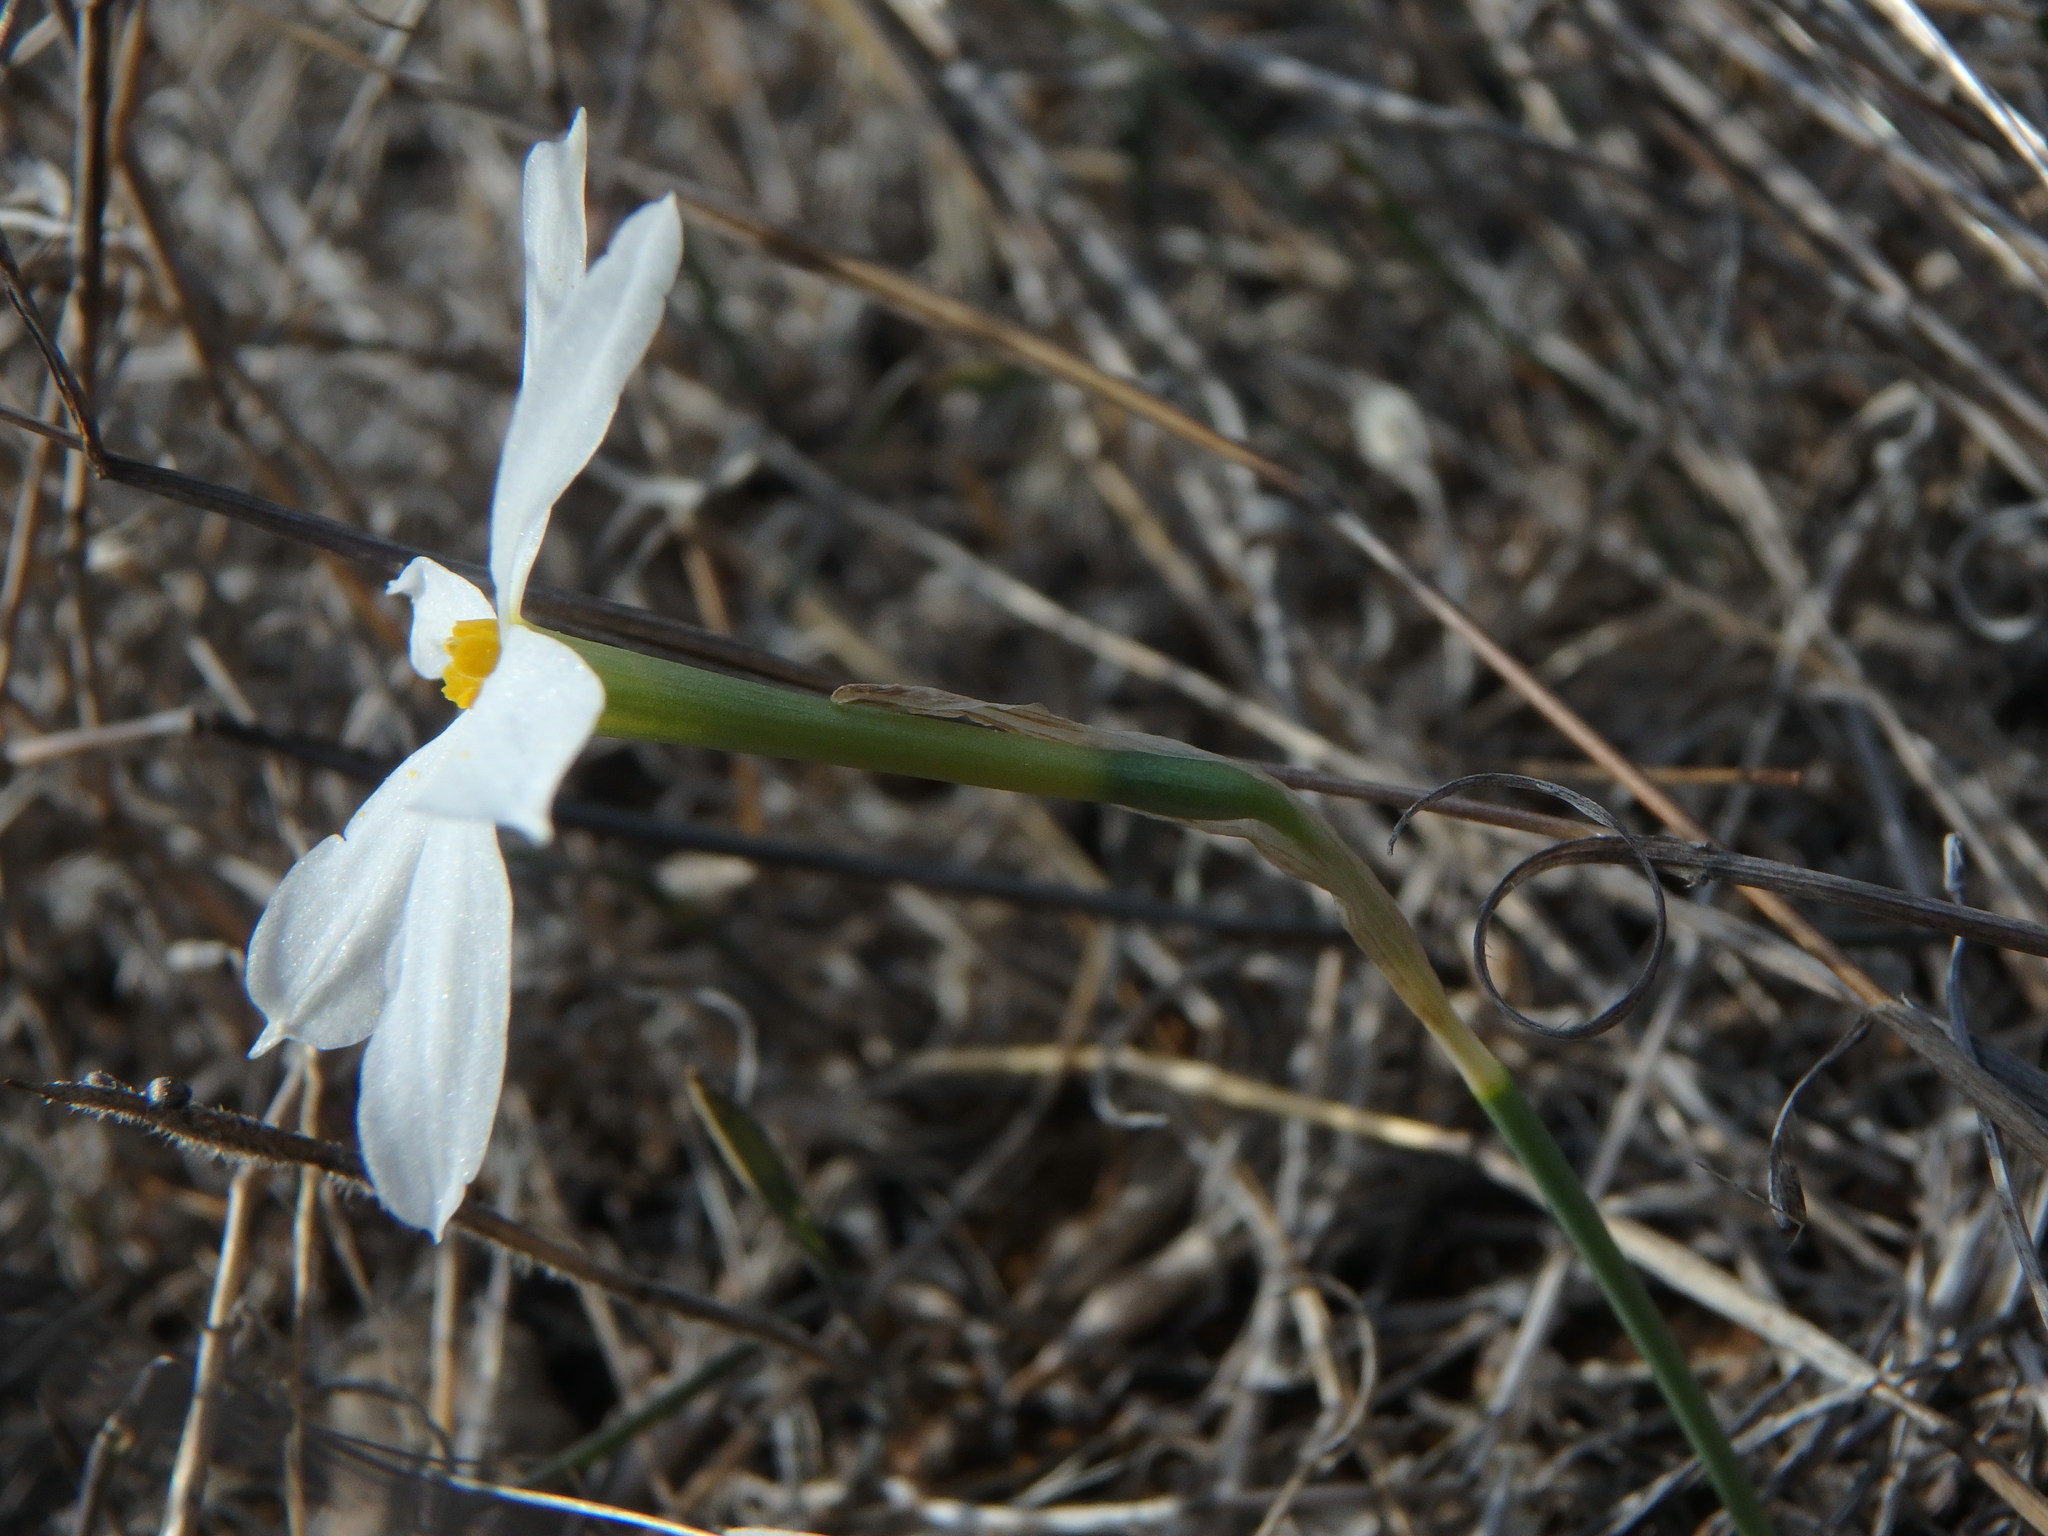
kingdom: Plantae
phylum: Tracheophyta
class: Liliopsida
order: Asparagales
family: Amaryllidaceae
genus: Narcissus
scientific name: Narcissus deficiens
